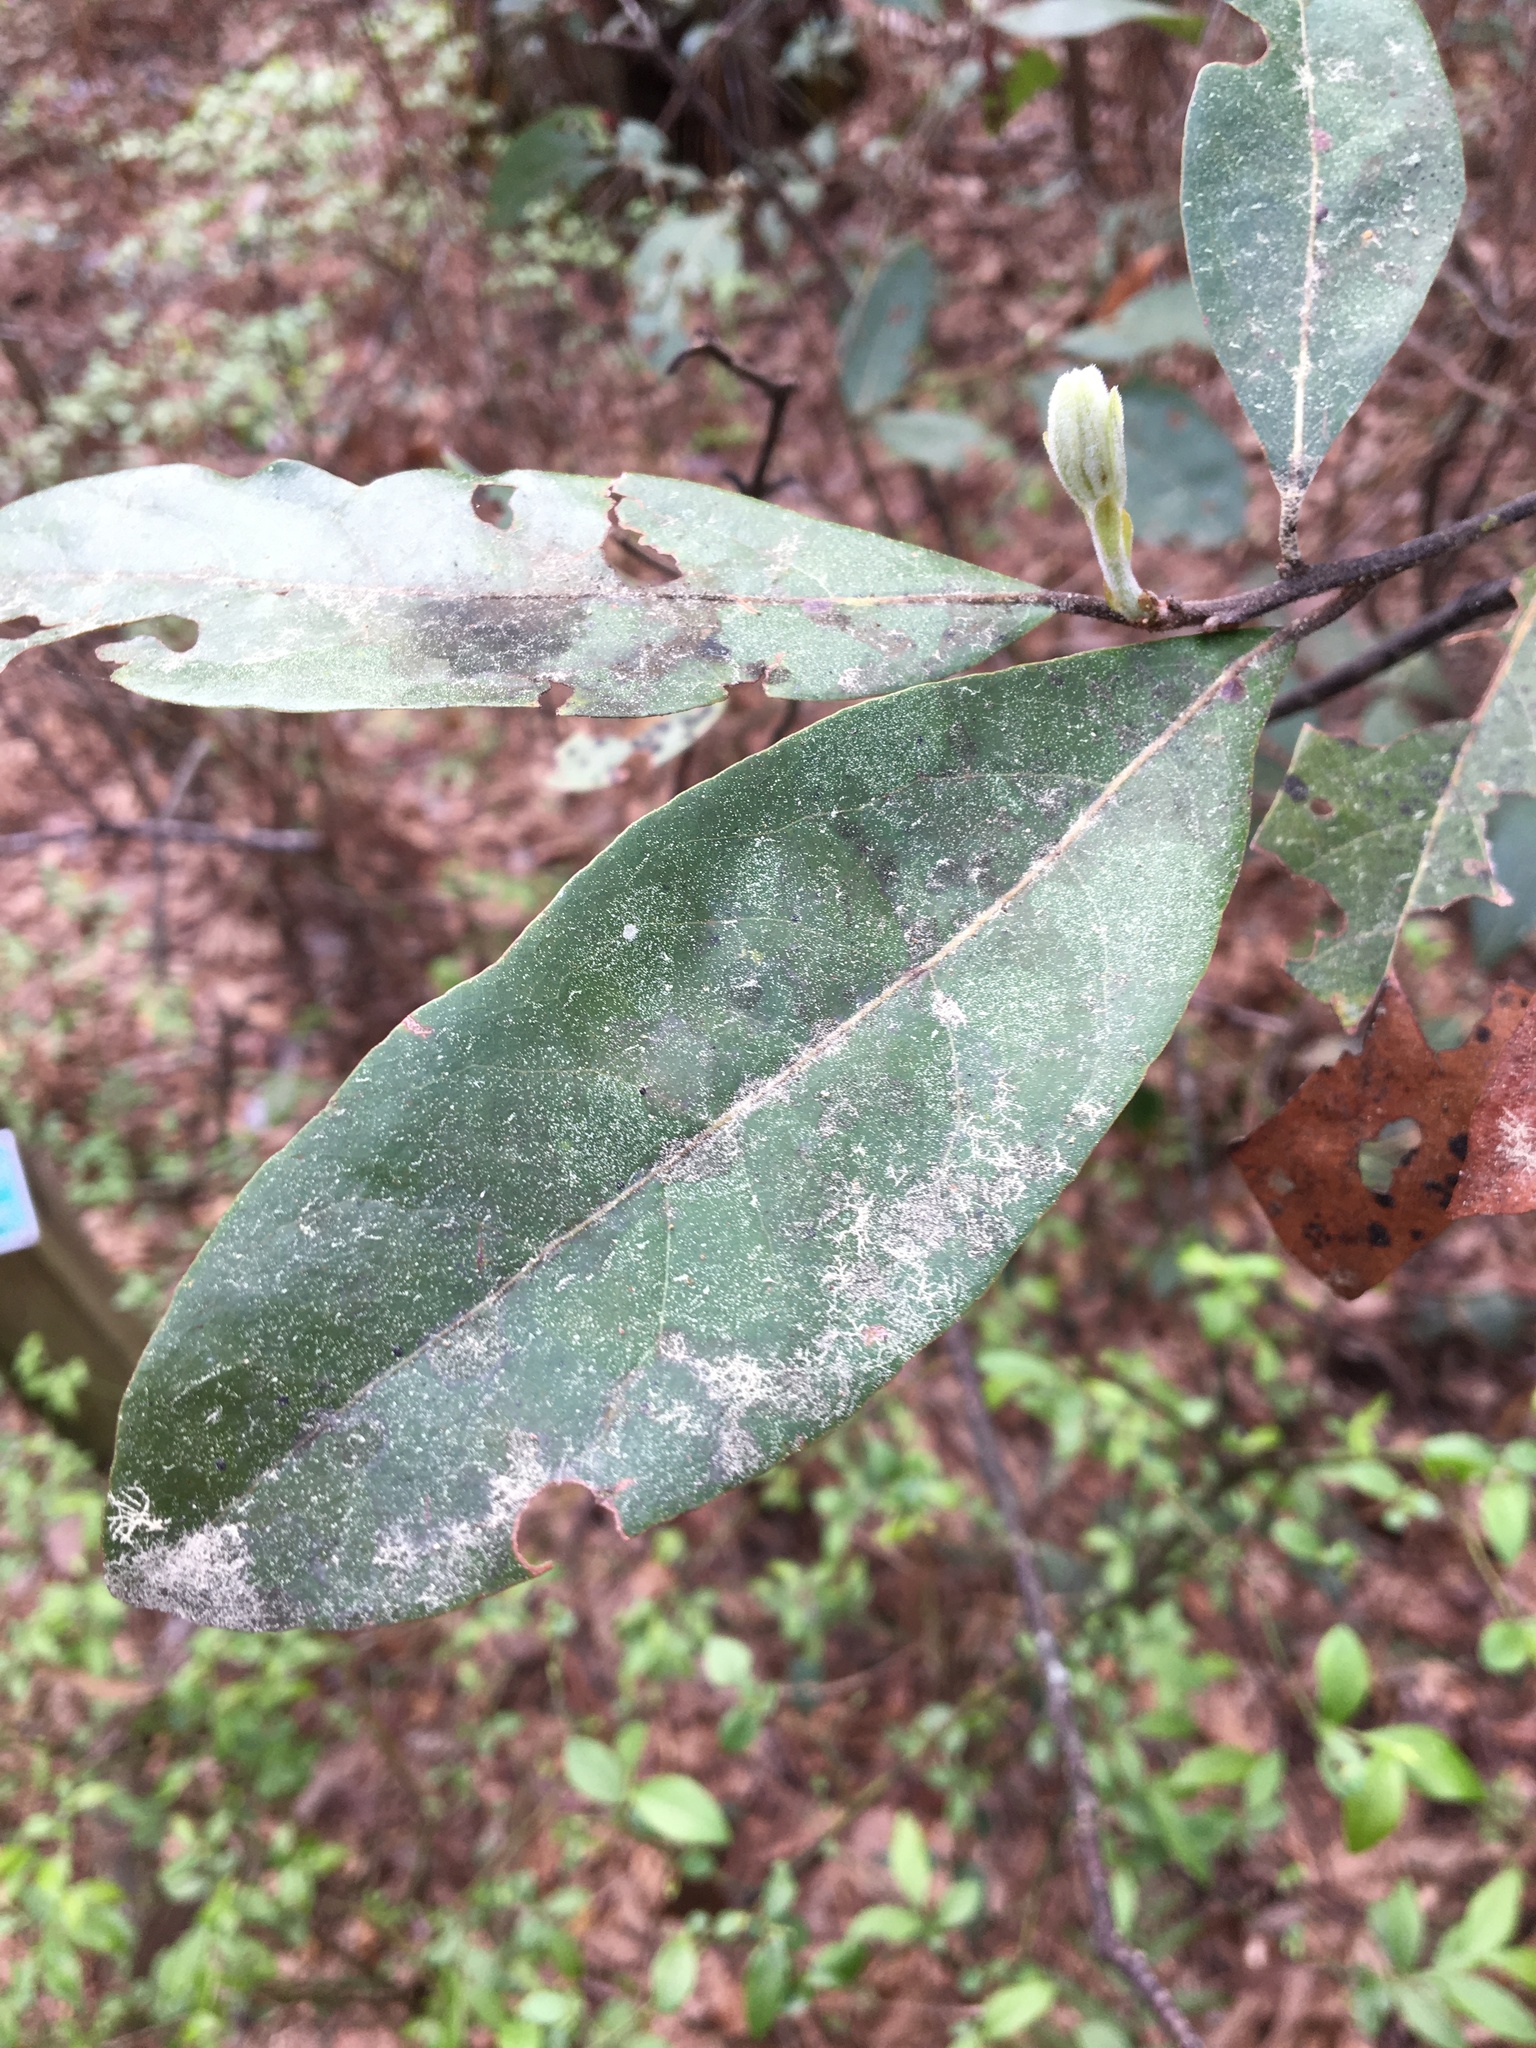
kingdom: Plantae
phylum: Tracheophyta
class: Magnoliopsida
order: Laurales
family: Lauraceae
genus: Persea
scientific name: Persea palustris
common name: Swampbay
